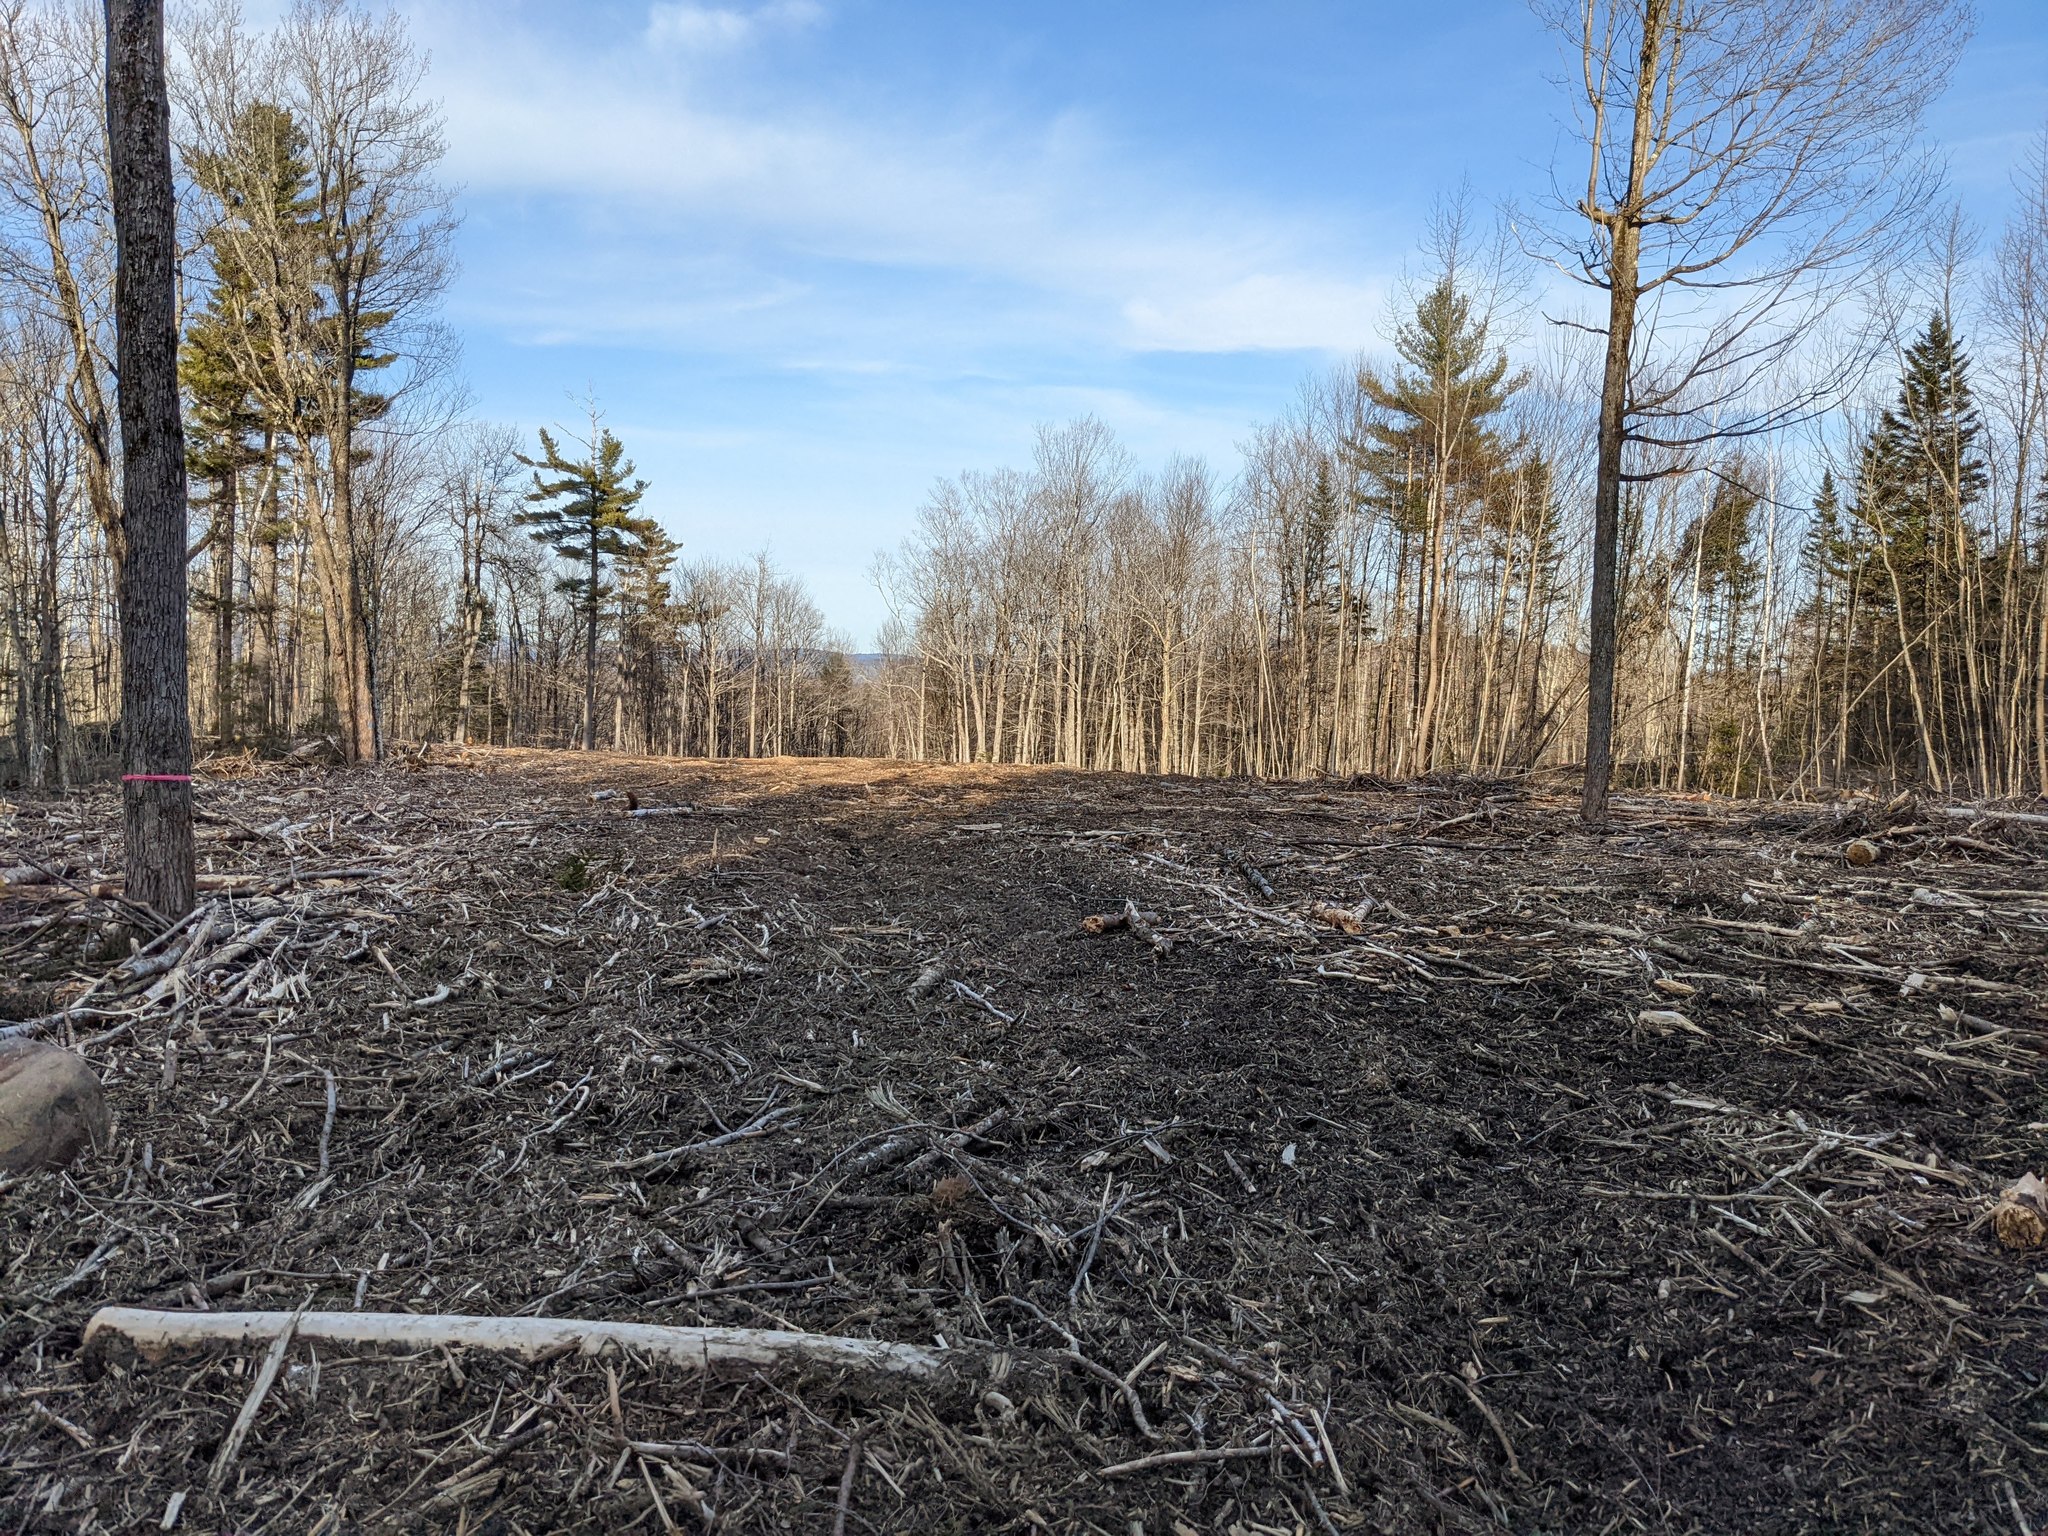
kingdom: Plantae
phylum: Tracheophyta
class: Pinopsida
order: Pinales
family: Pinaceae
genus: Pinus
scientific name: Pinus strobus
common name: Weymouth pine
